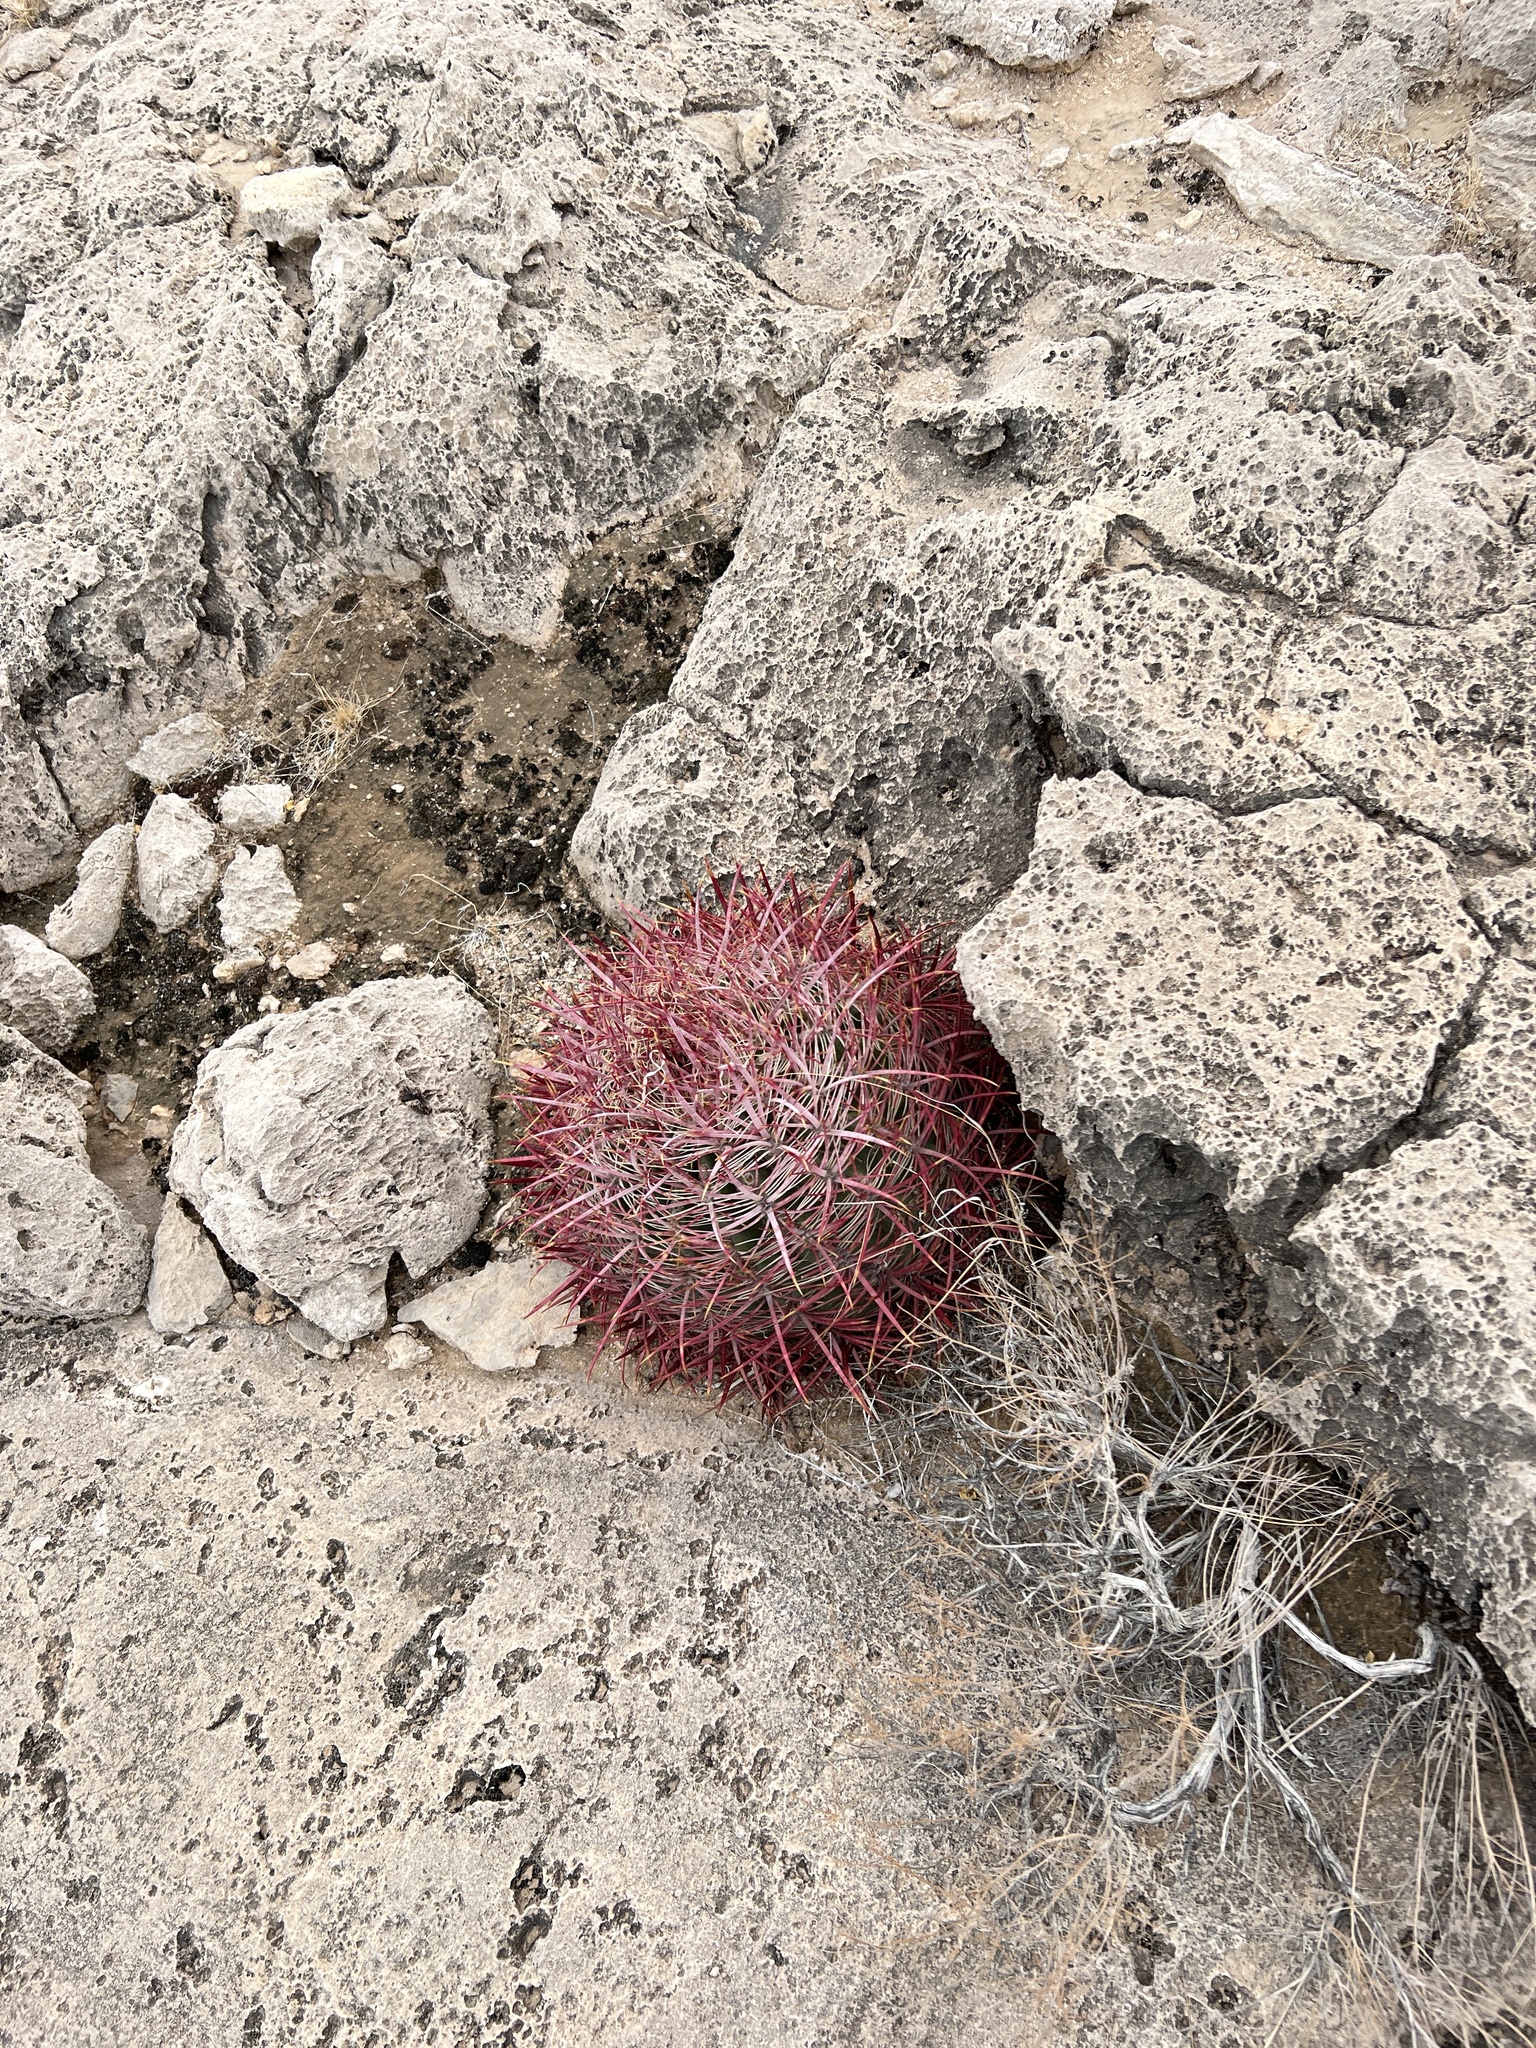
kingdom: Plantae
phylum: Tracheophyta
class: Magnoliopsida
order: Caryophyllales
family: Cactaceae
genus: Ferocactus
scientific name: Ferocactus cylindraceus
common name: California barrel cactus
